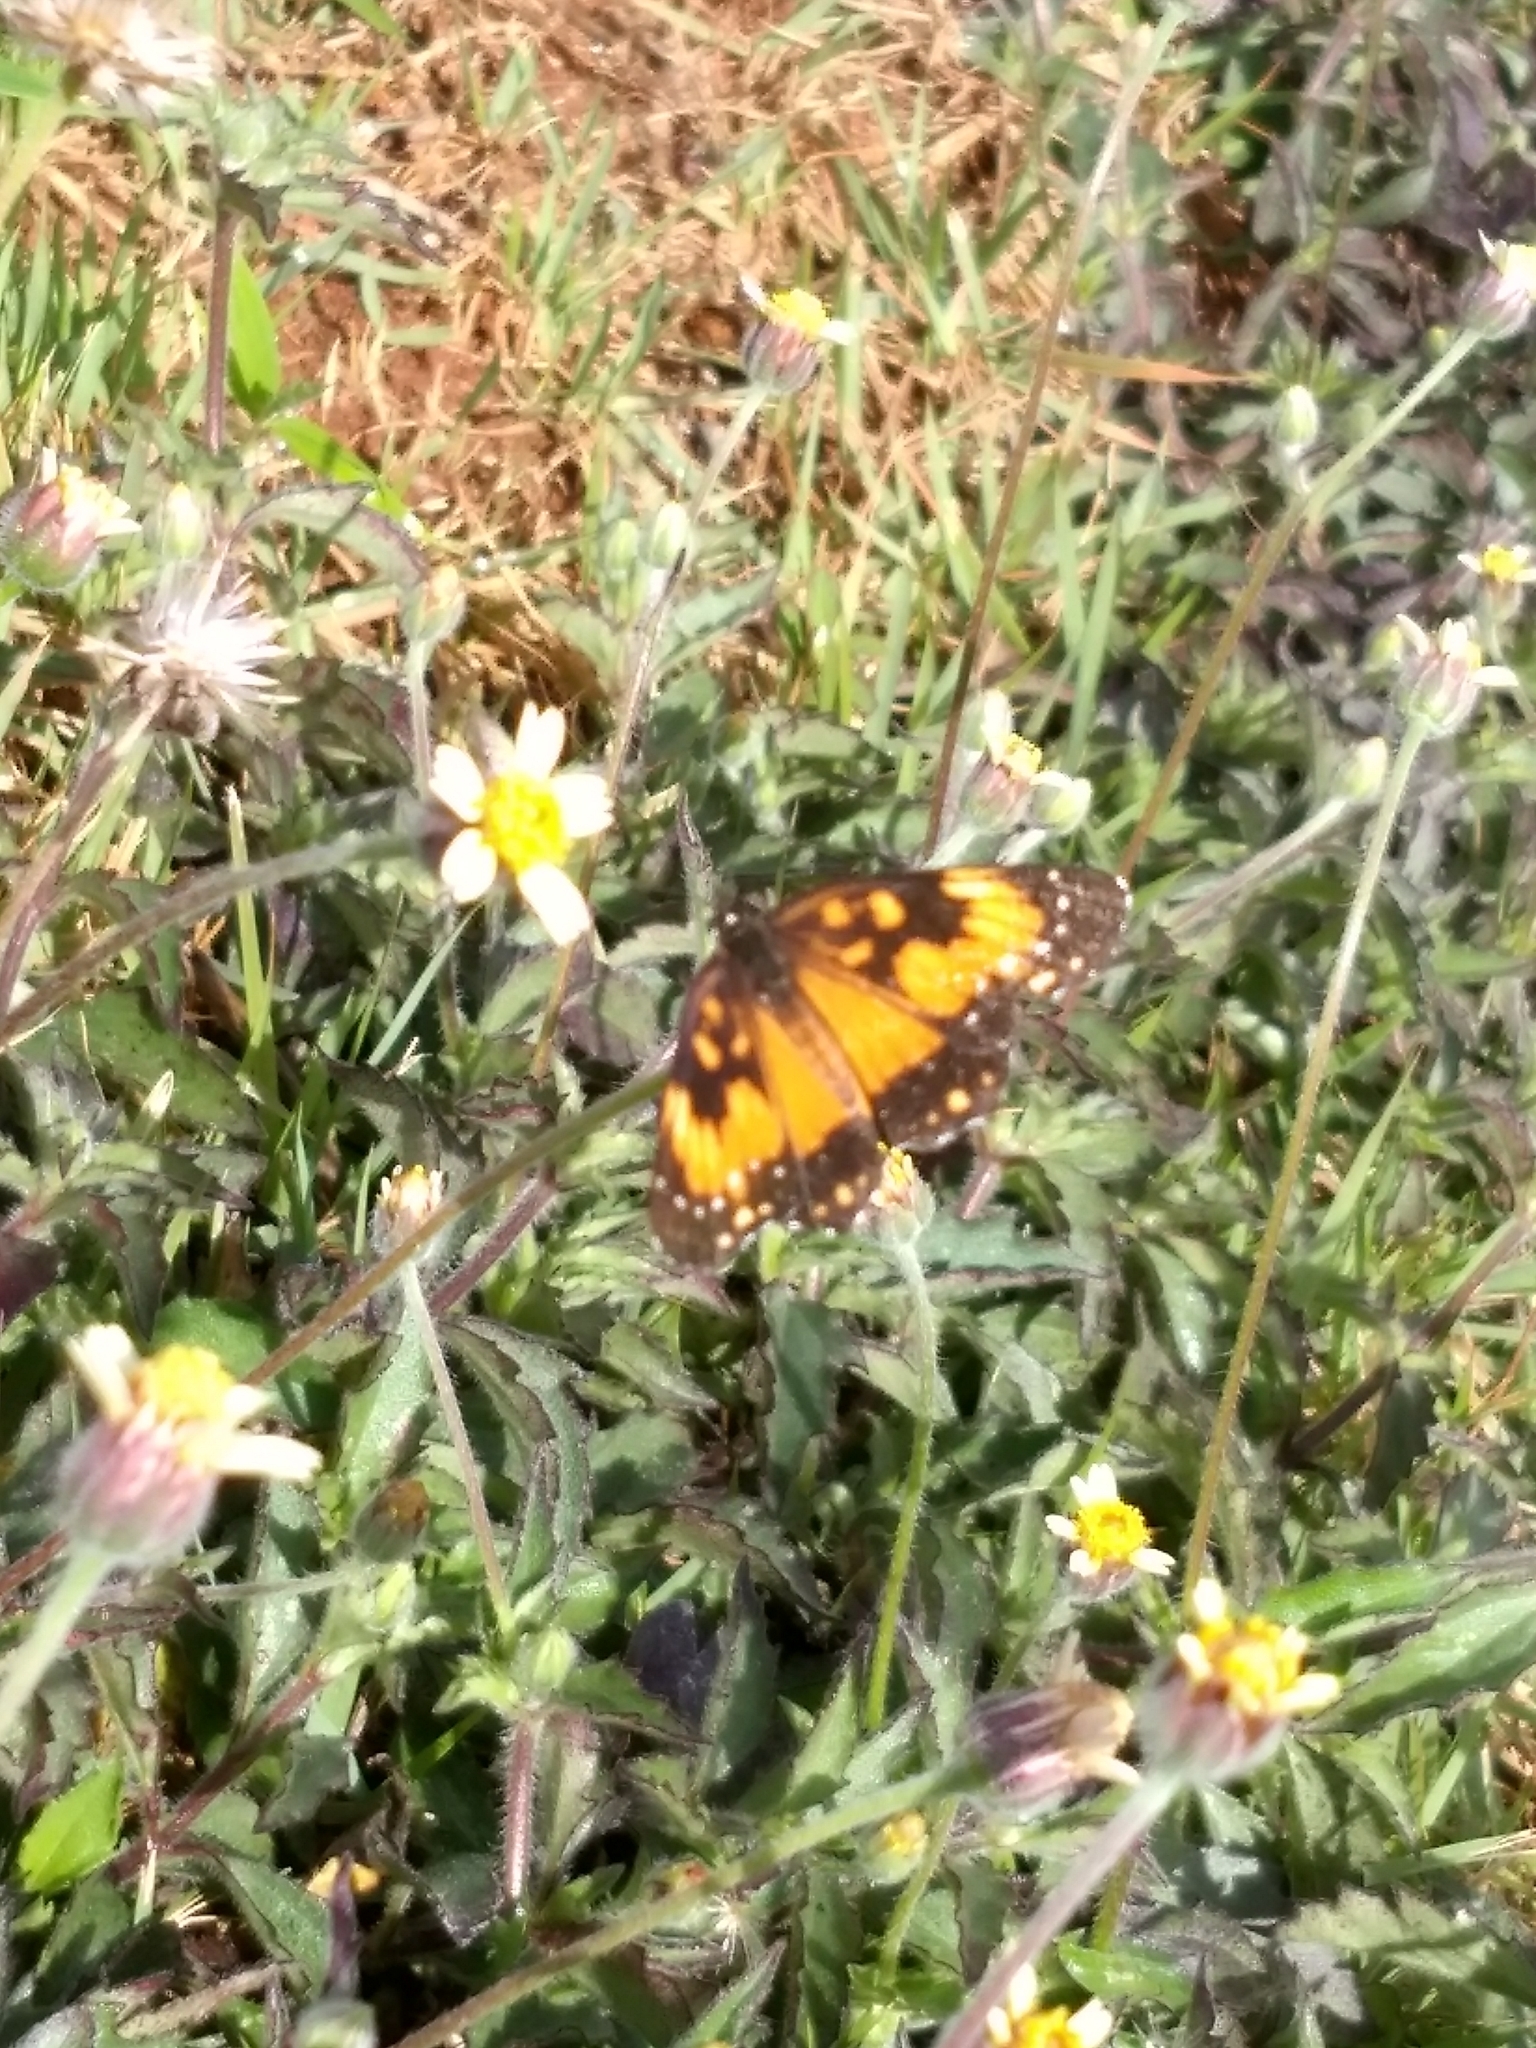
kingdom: Animalia
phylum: Arthropoda
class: Insecta
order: Lepidoptera
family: Nymphalidae
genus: Chlosyne
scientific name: Chlosyne lacinia
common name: Bordered patch
